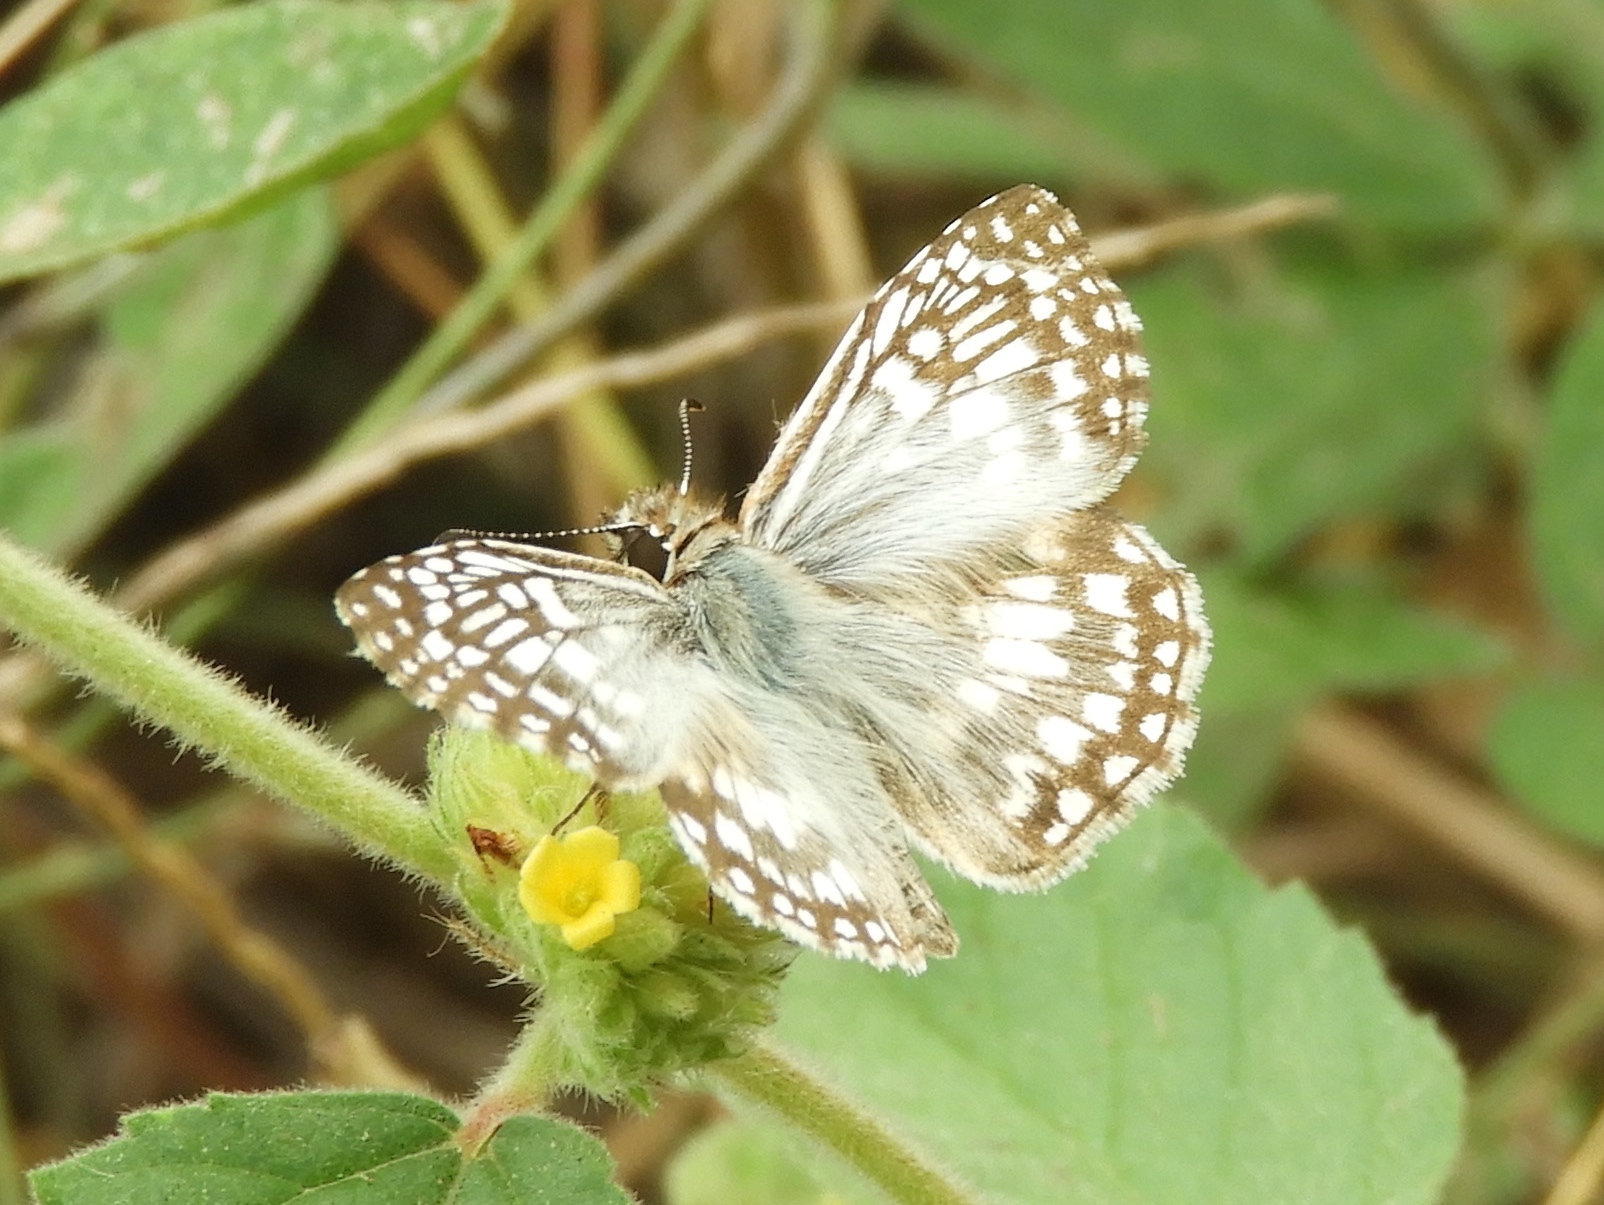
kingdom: Animalia
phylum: Arthropoda
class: Insecta
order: Lepidoptera
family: Hesperiidae
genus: Burnsius
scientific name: Burnsius
